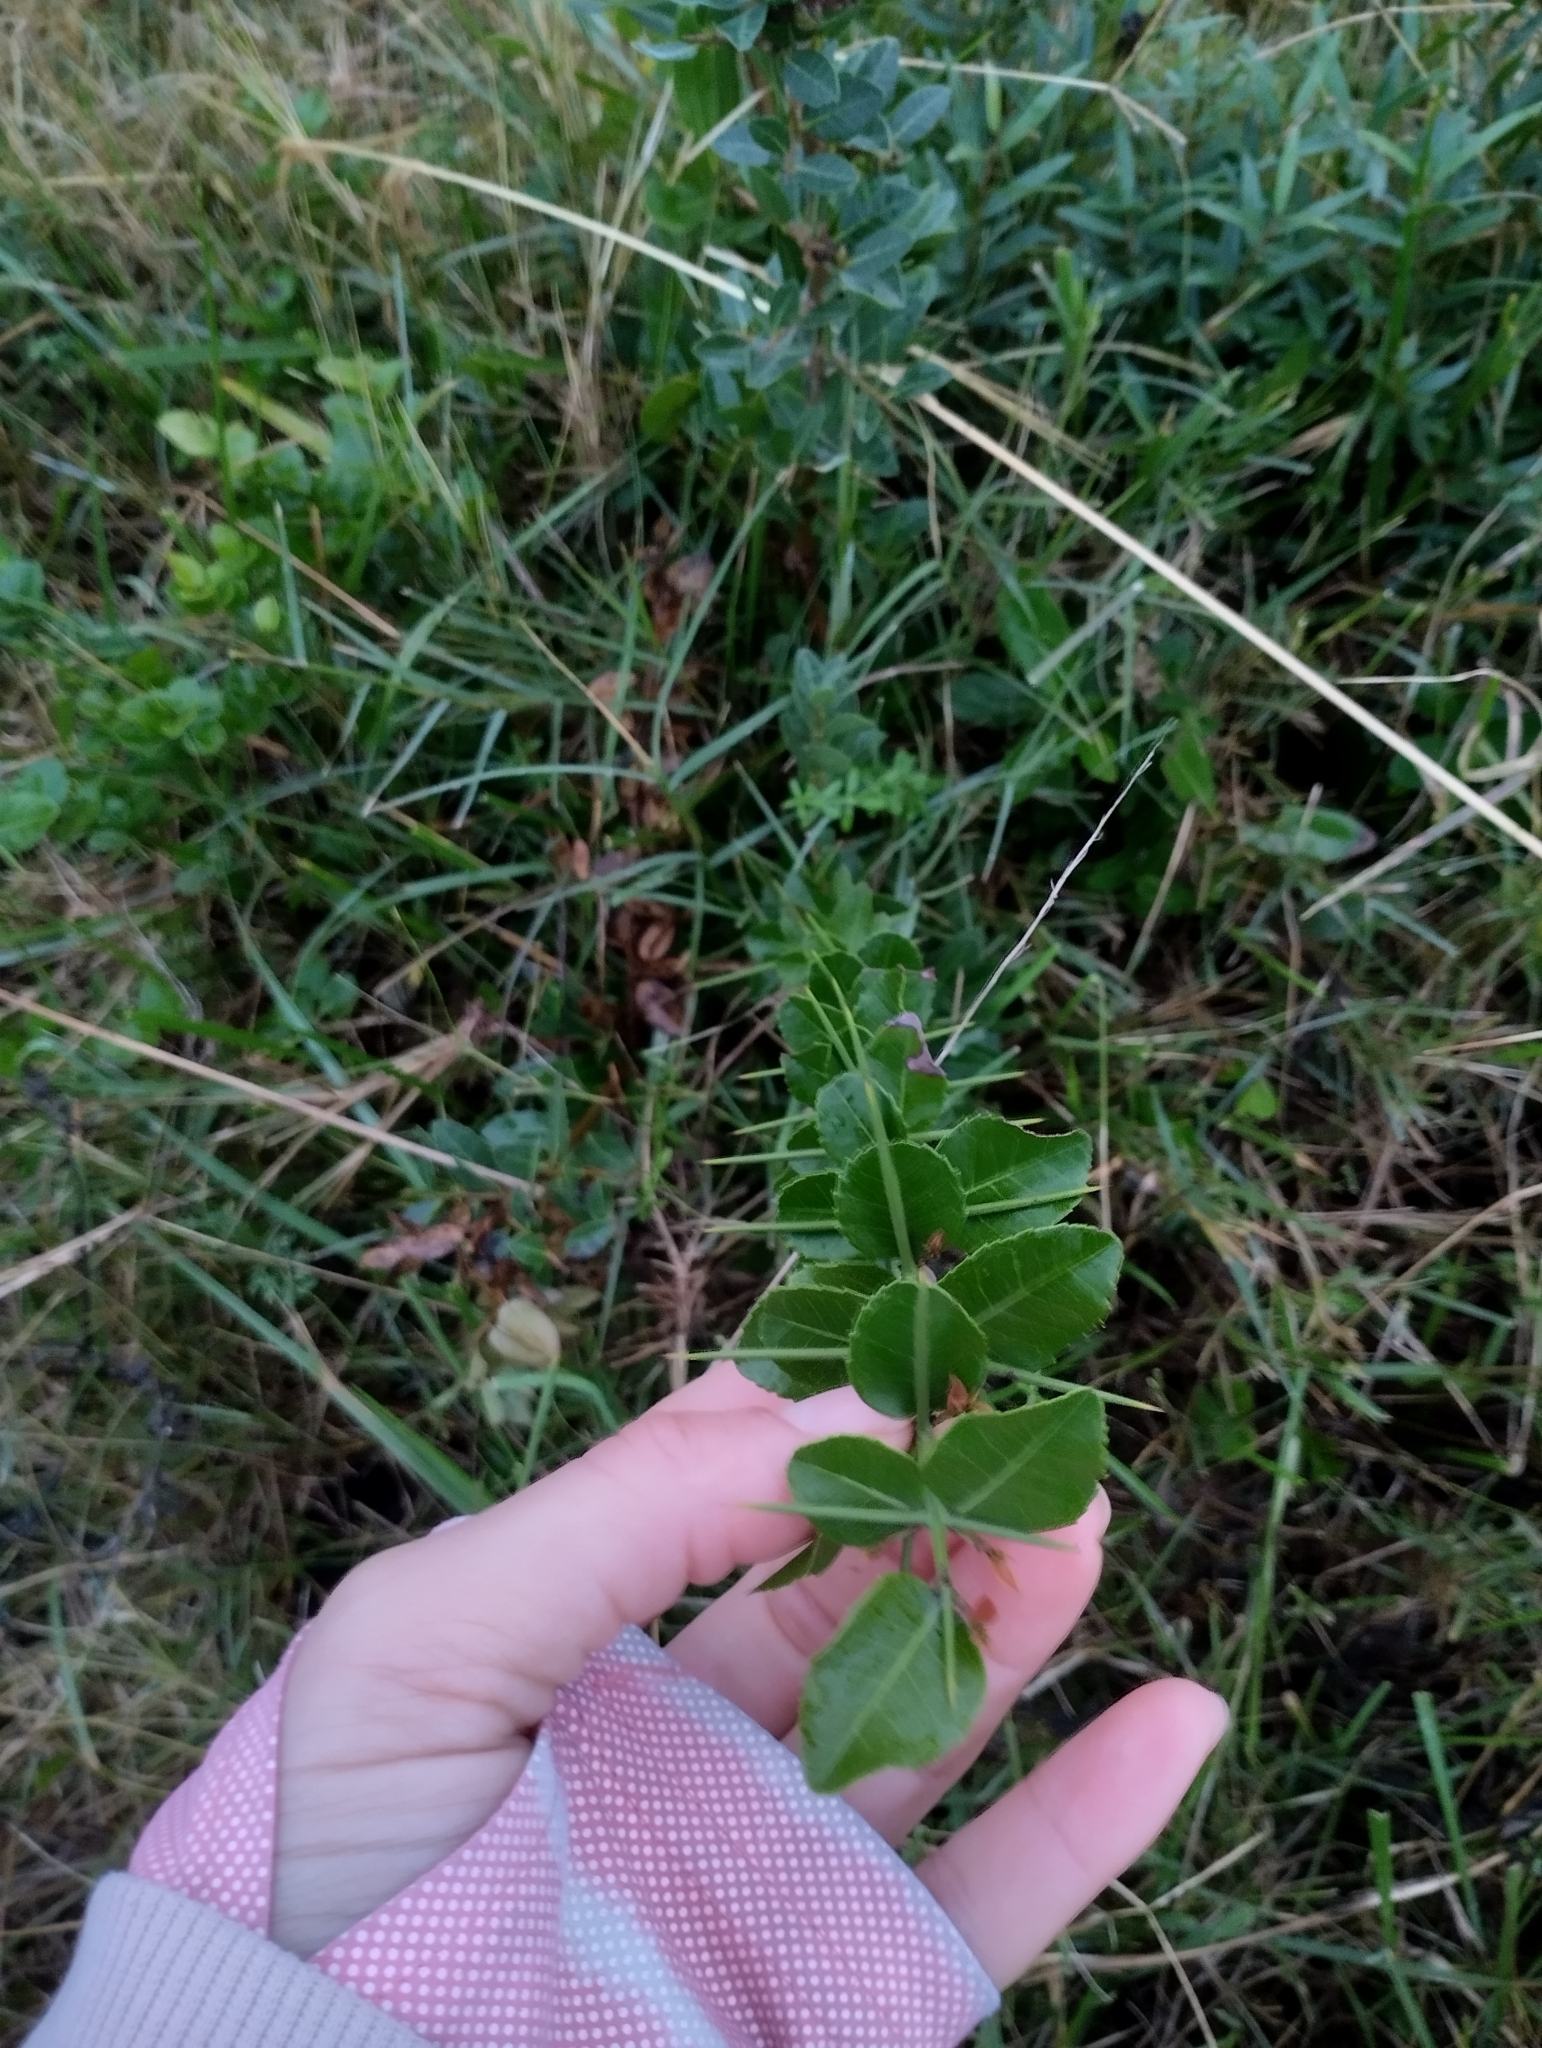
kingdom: Plantae
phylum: Tracheophyta
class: Magnoliopsida
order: Rosales
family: Rhamnaceae
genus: Scutia
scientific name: Scutia buxifolia
